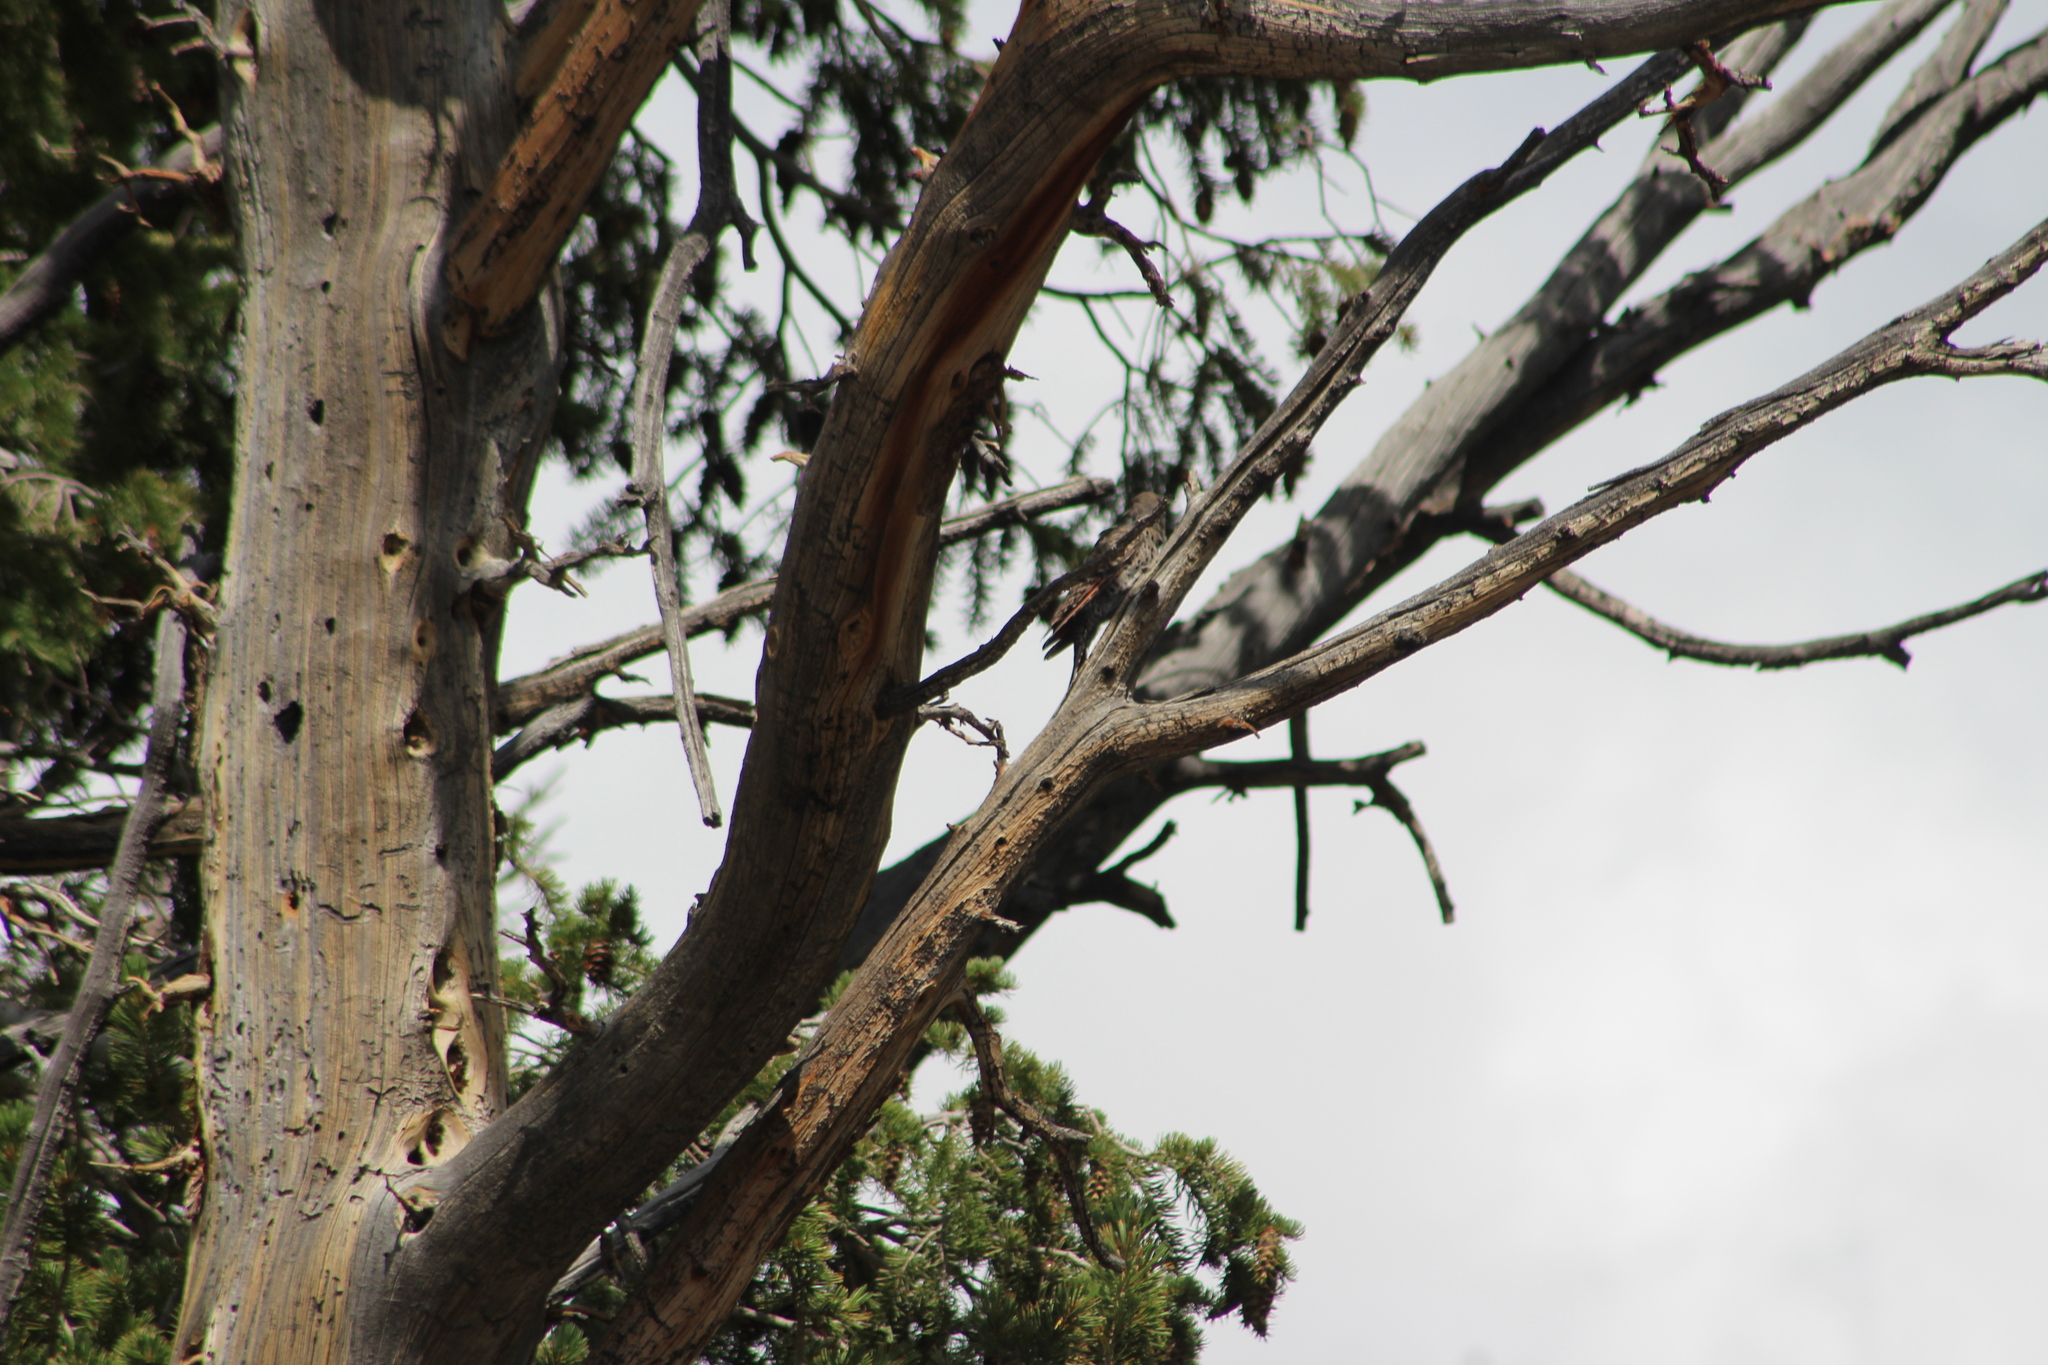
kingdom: Animalia
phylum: Chordata
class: Aves
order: Piciformes
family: Picidae
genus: Colaptes
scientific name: Colaptes auratus
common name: Northern flicker
